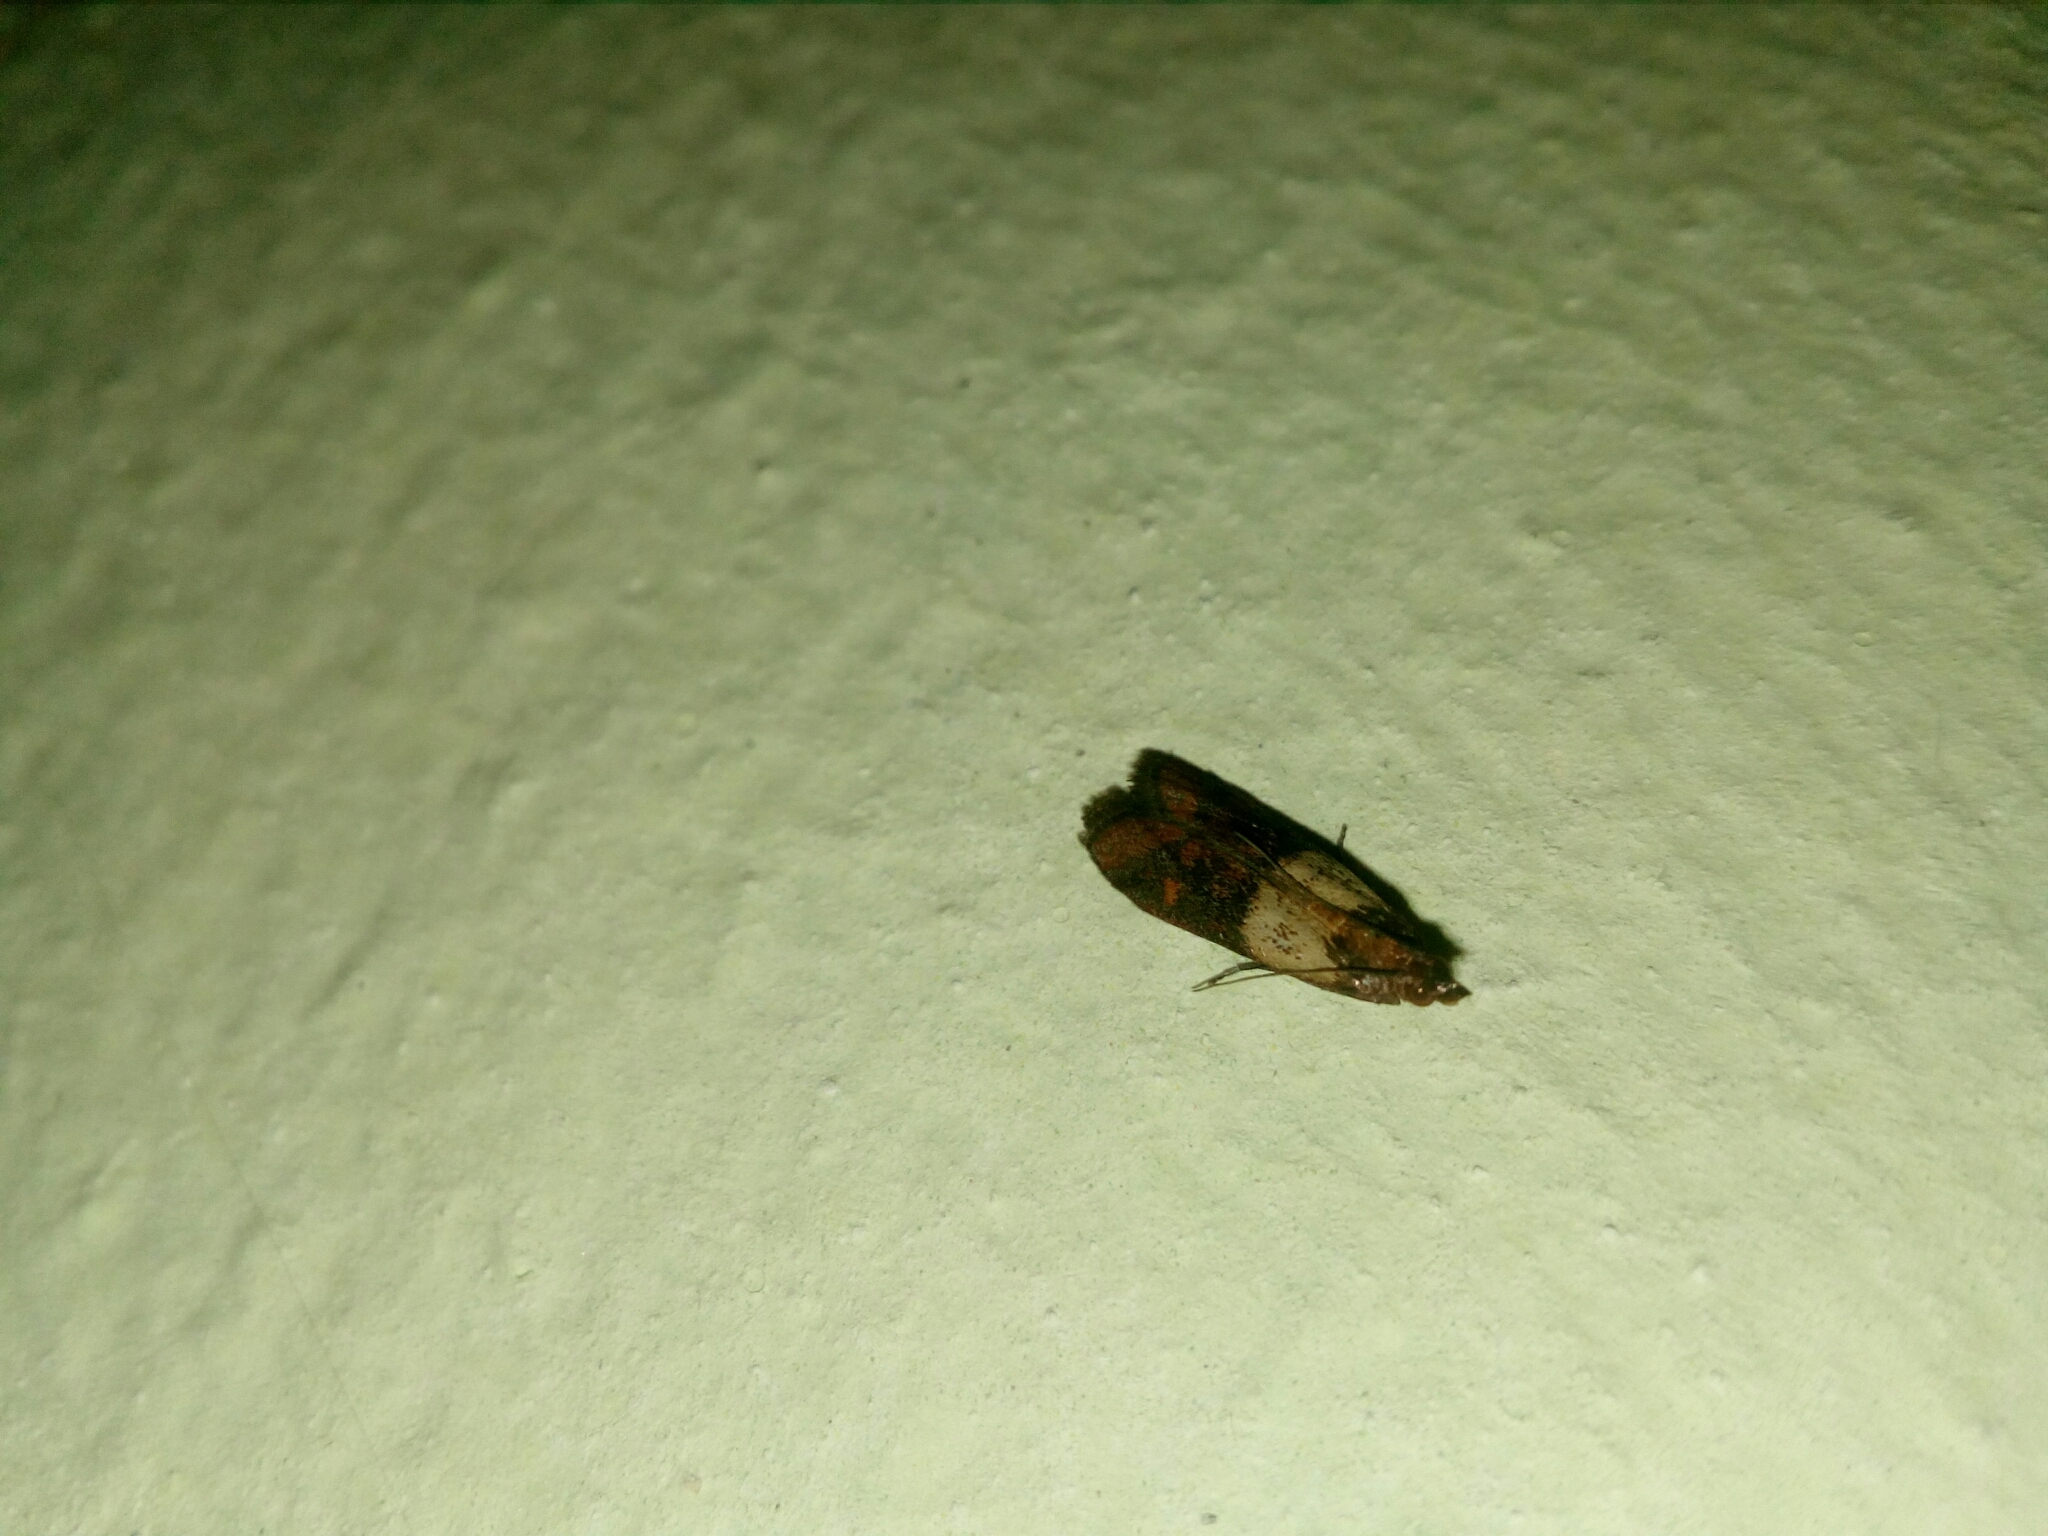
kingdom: Animalia
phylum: Arthropoda
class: Insecta
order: Lepidoptera
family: Pyralidae
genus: Plodia
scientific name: Plodia interpunctella
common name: Indian meal moth
